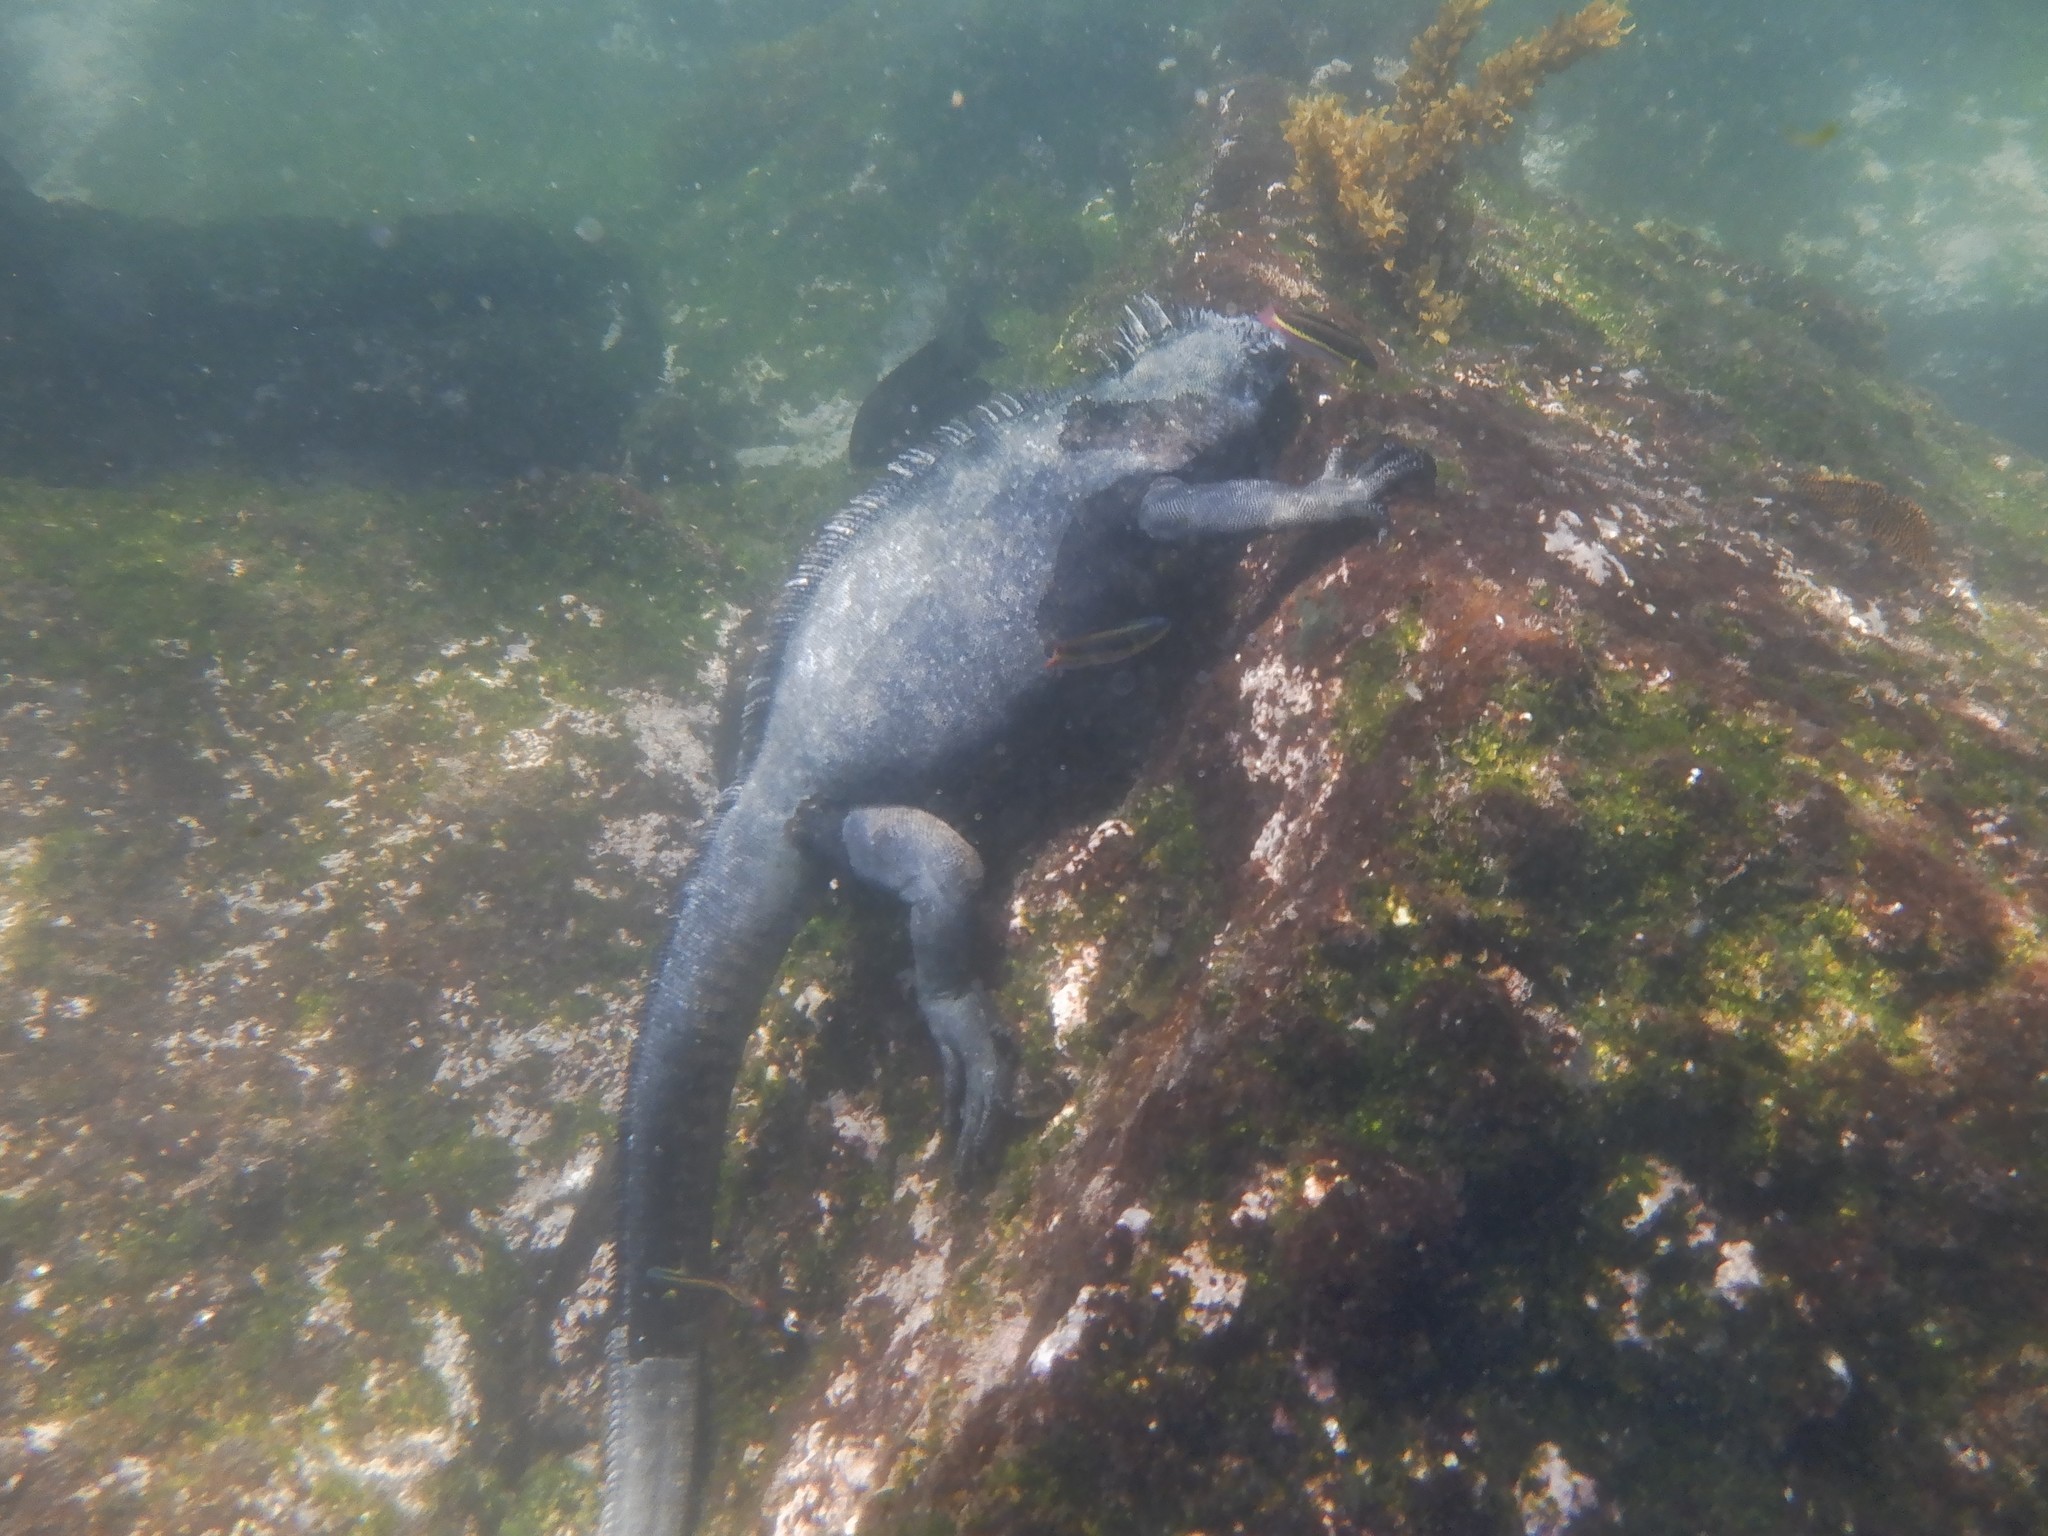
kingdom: Animalia
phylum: Chordata
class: Squamata
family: Iguanidae
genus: Amblyrhynchus
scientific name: Amblyrhynchus cristatus
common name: Marine iguana
